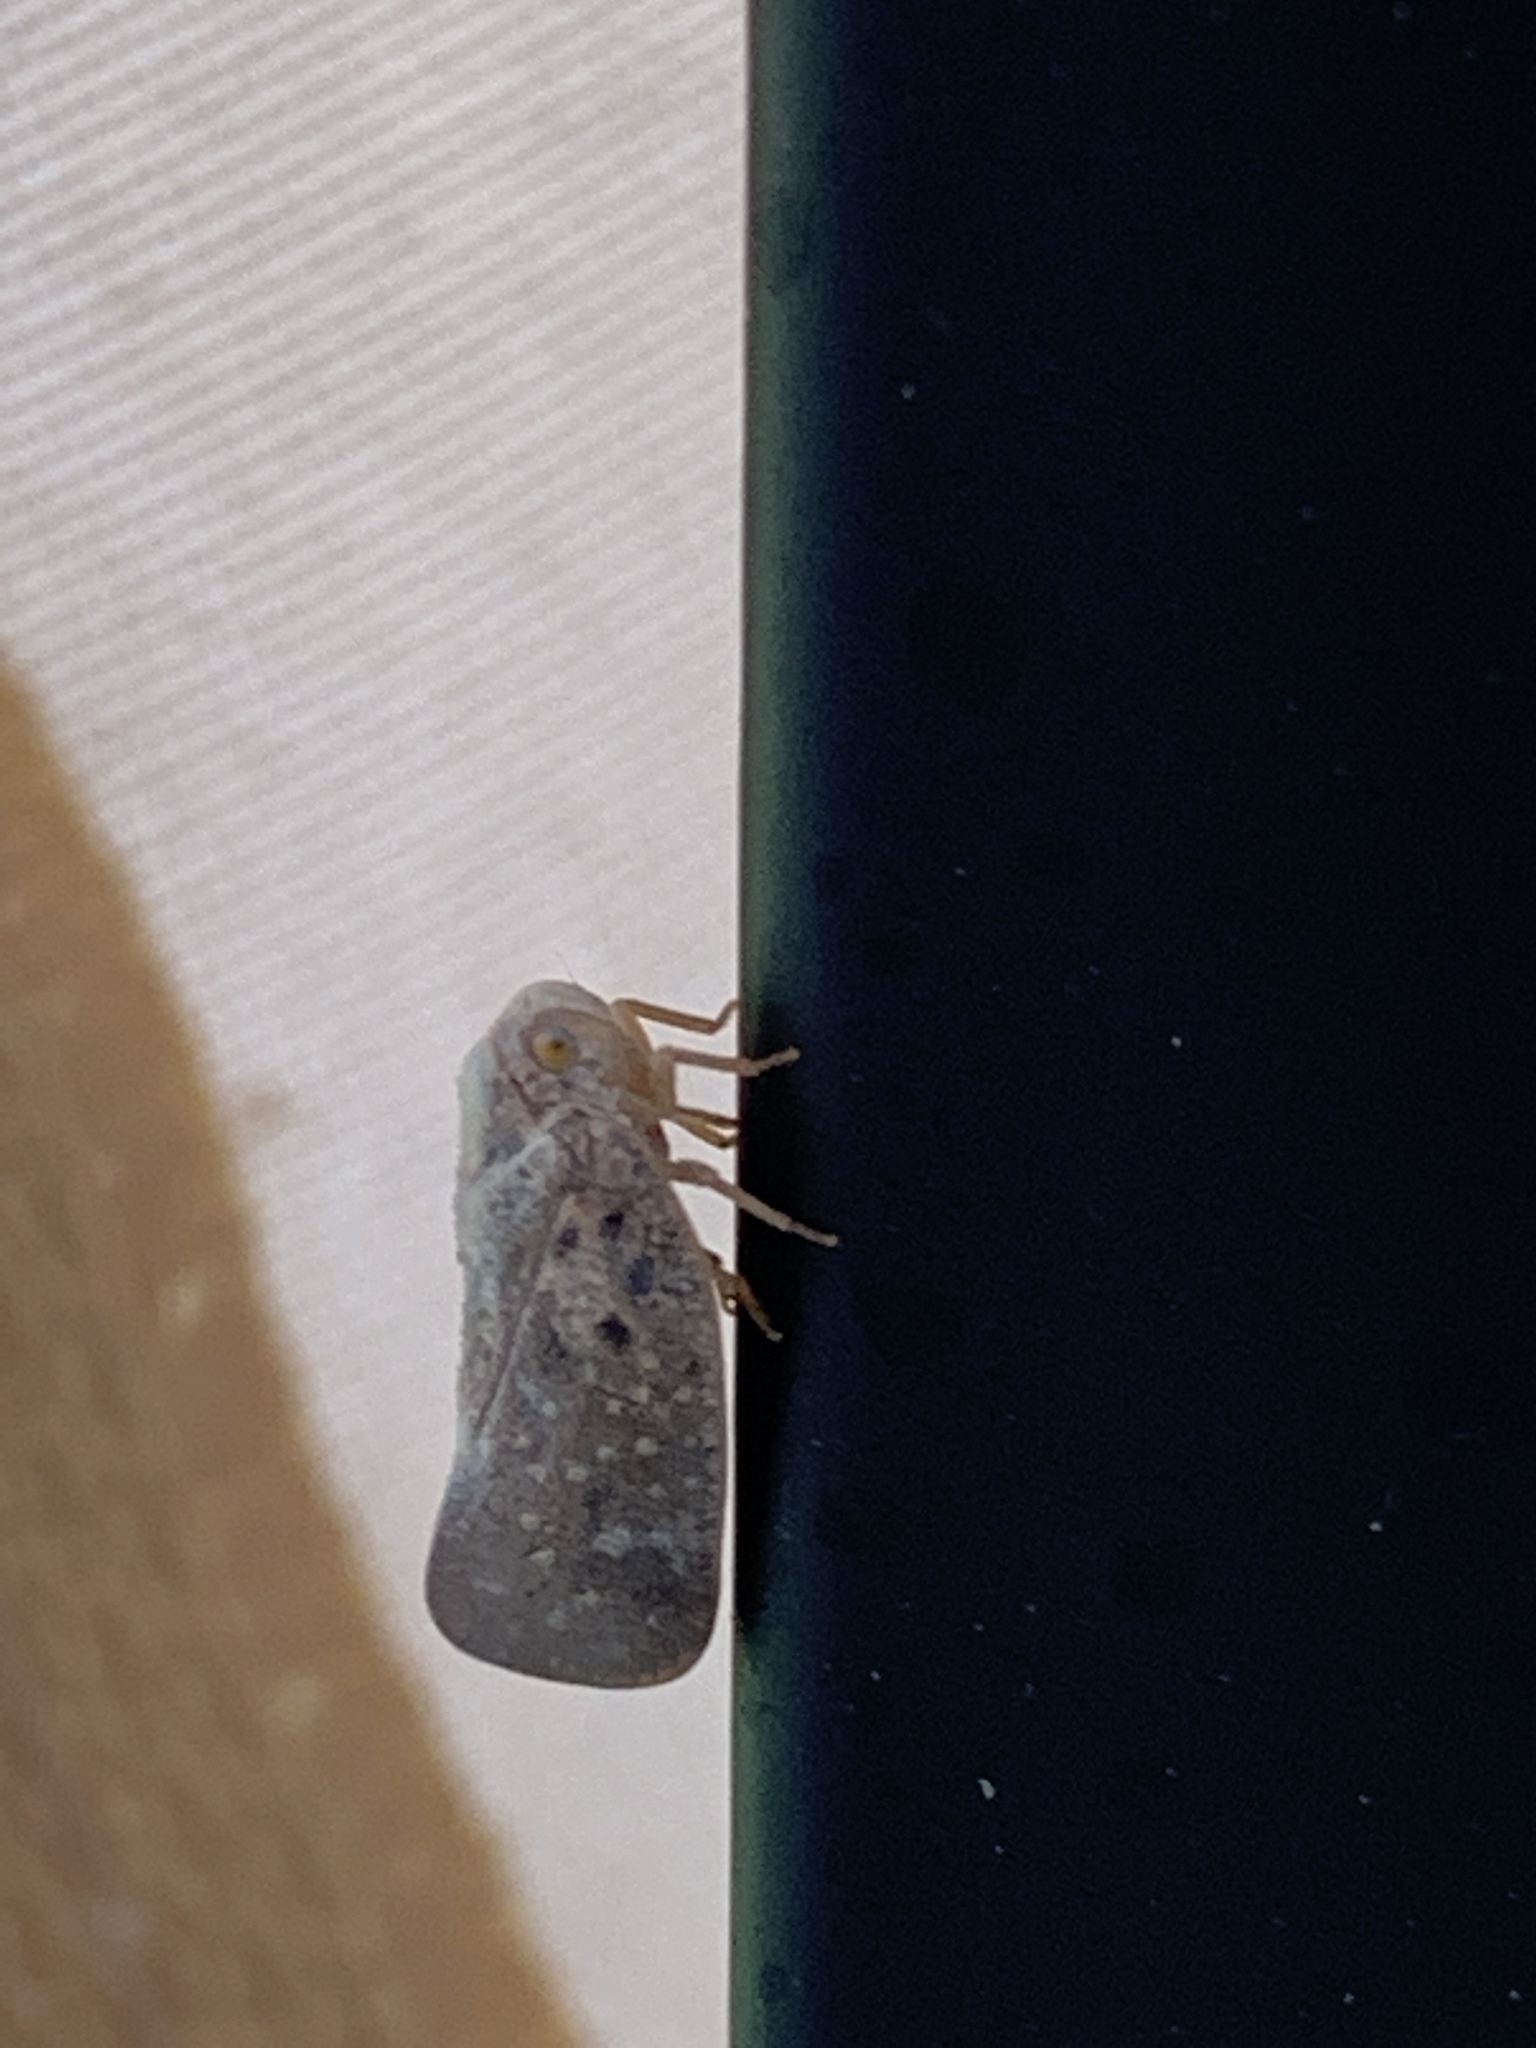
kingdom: Animalia
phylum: Arthropoda
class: Insecta
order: Hemiptera
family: Flatidae
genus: Metcalfa
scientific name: Metcalfa pruinosa
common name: Citrus flatid planthopper
